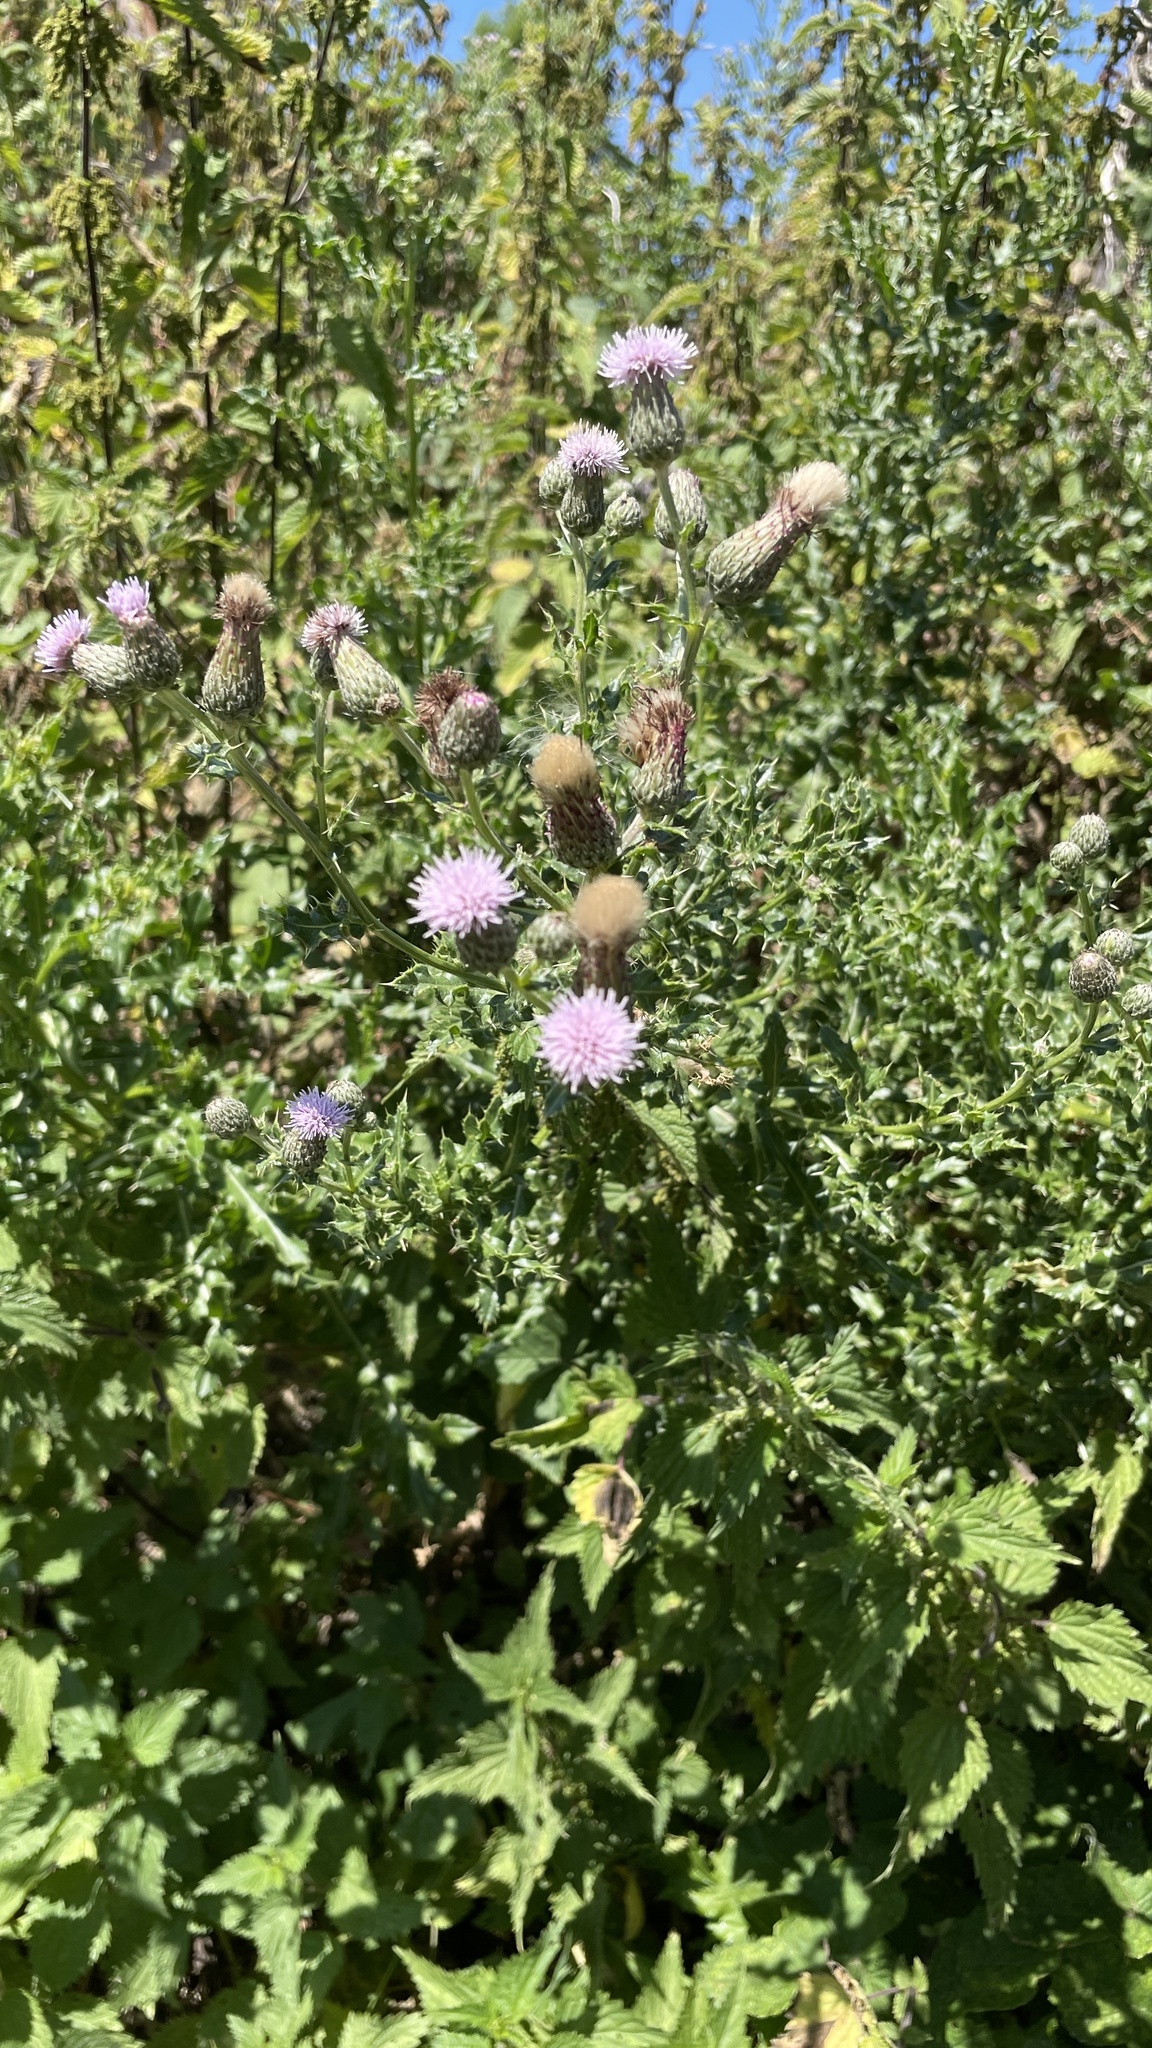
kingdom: Plantae
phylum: Tracheophyta
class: Magnoliopsida
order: Asterales
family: Asteraceae
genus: Cirsium
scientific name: Cirsium arvense
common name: Creeping thistle
